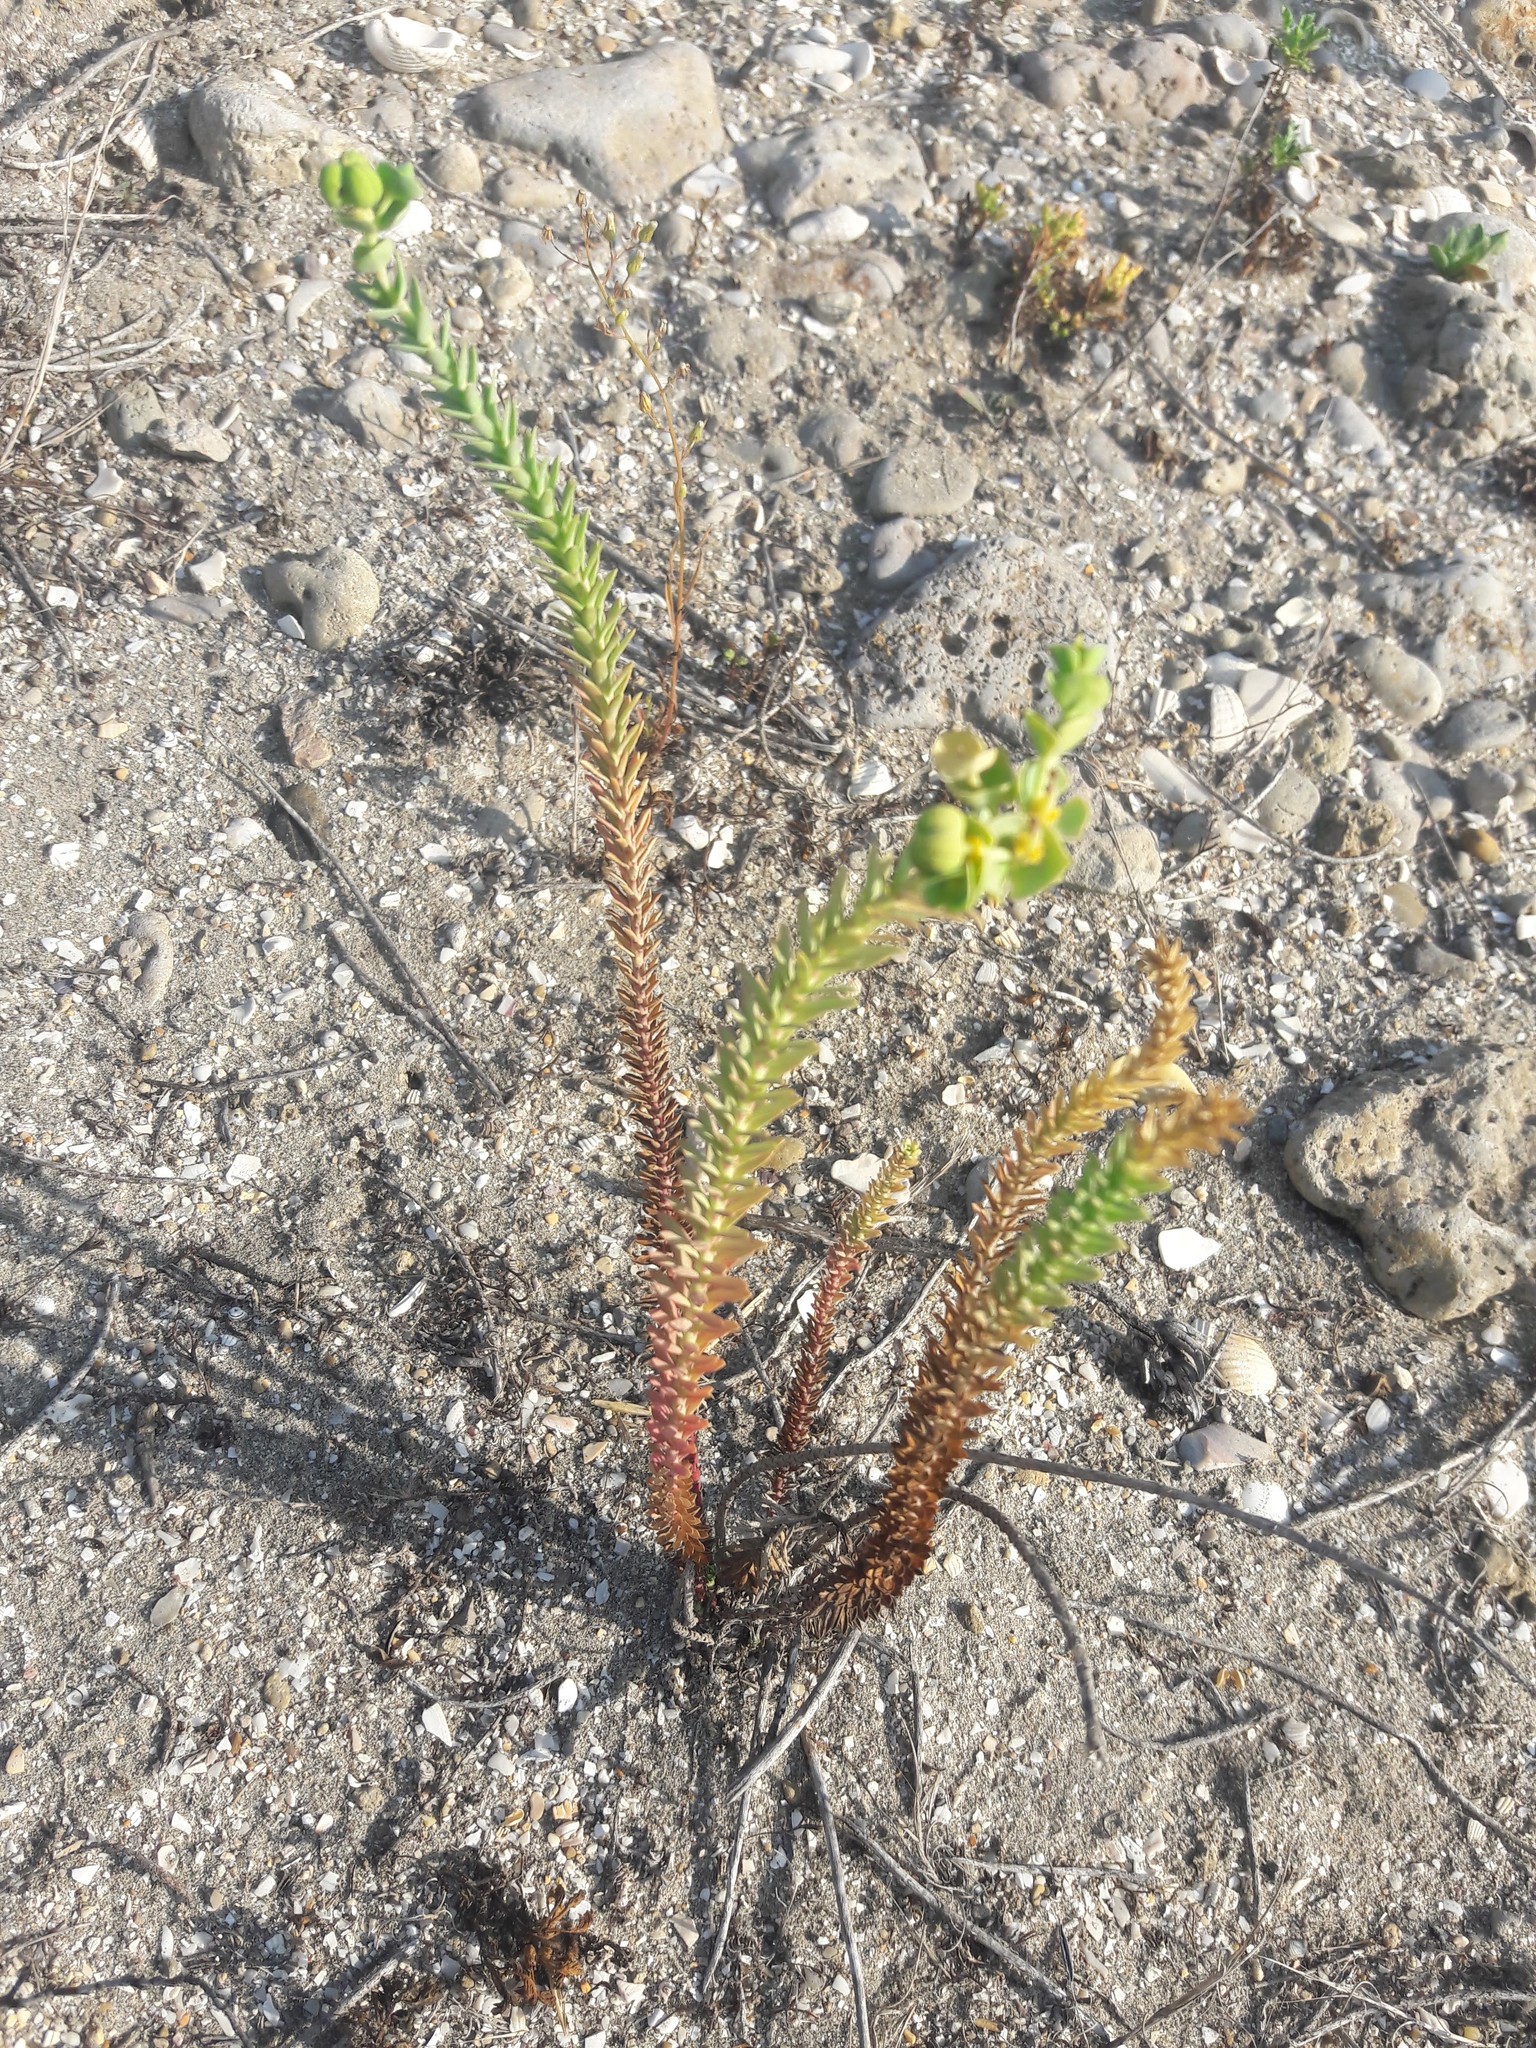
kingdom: Plantae
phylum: Tracheophyta
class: Magnoliopsida
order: Malpighiales
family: Euphorbiaceae
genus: Euphorbia
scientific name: Euphorbia paralias
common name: Sea spurge
